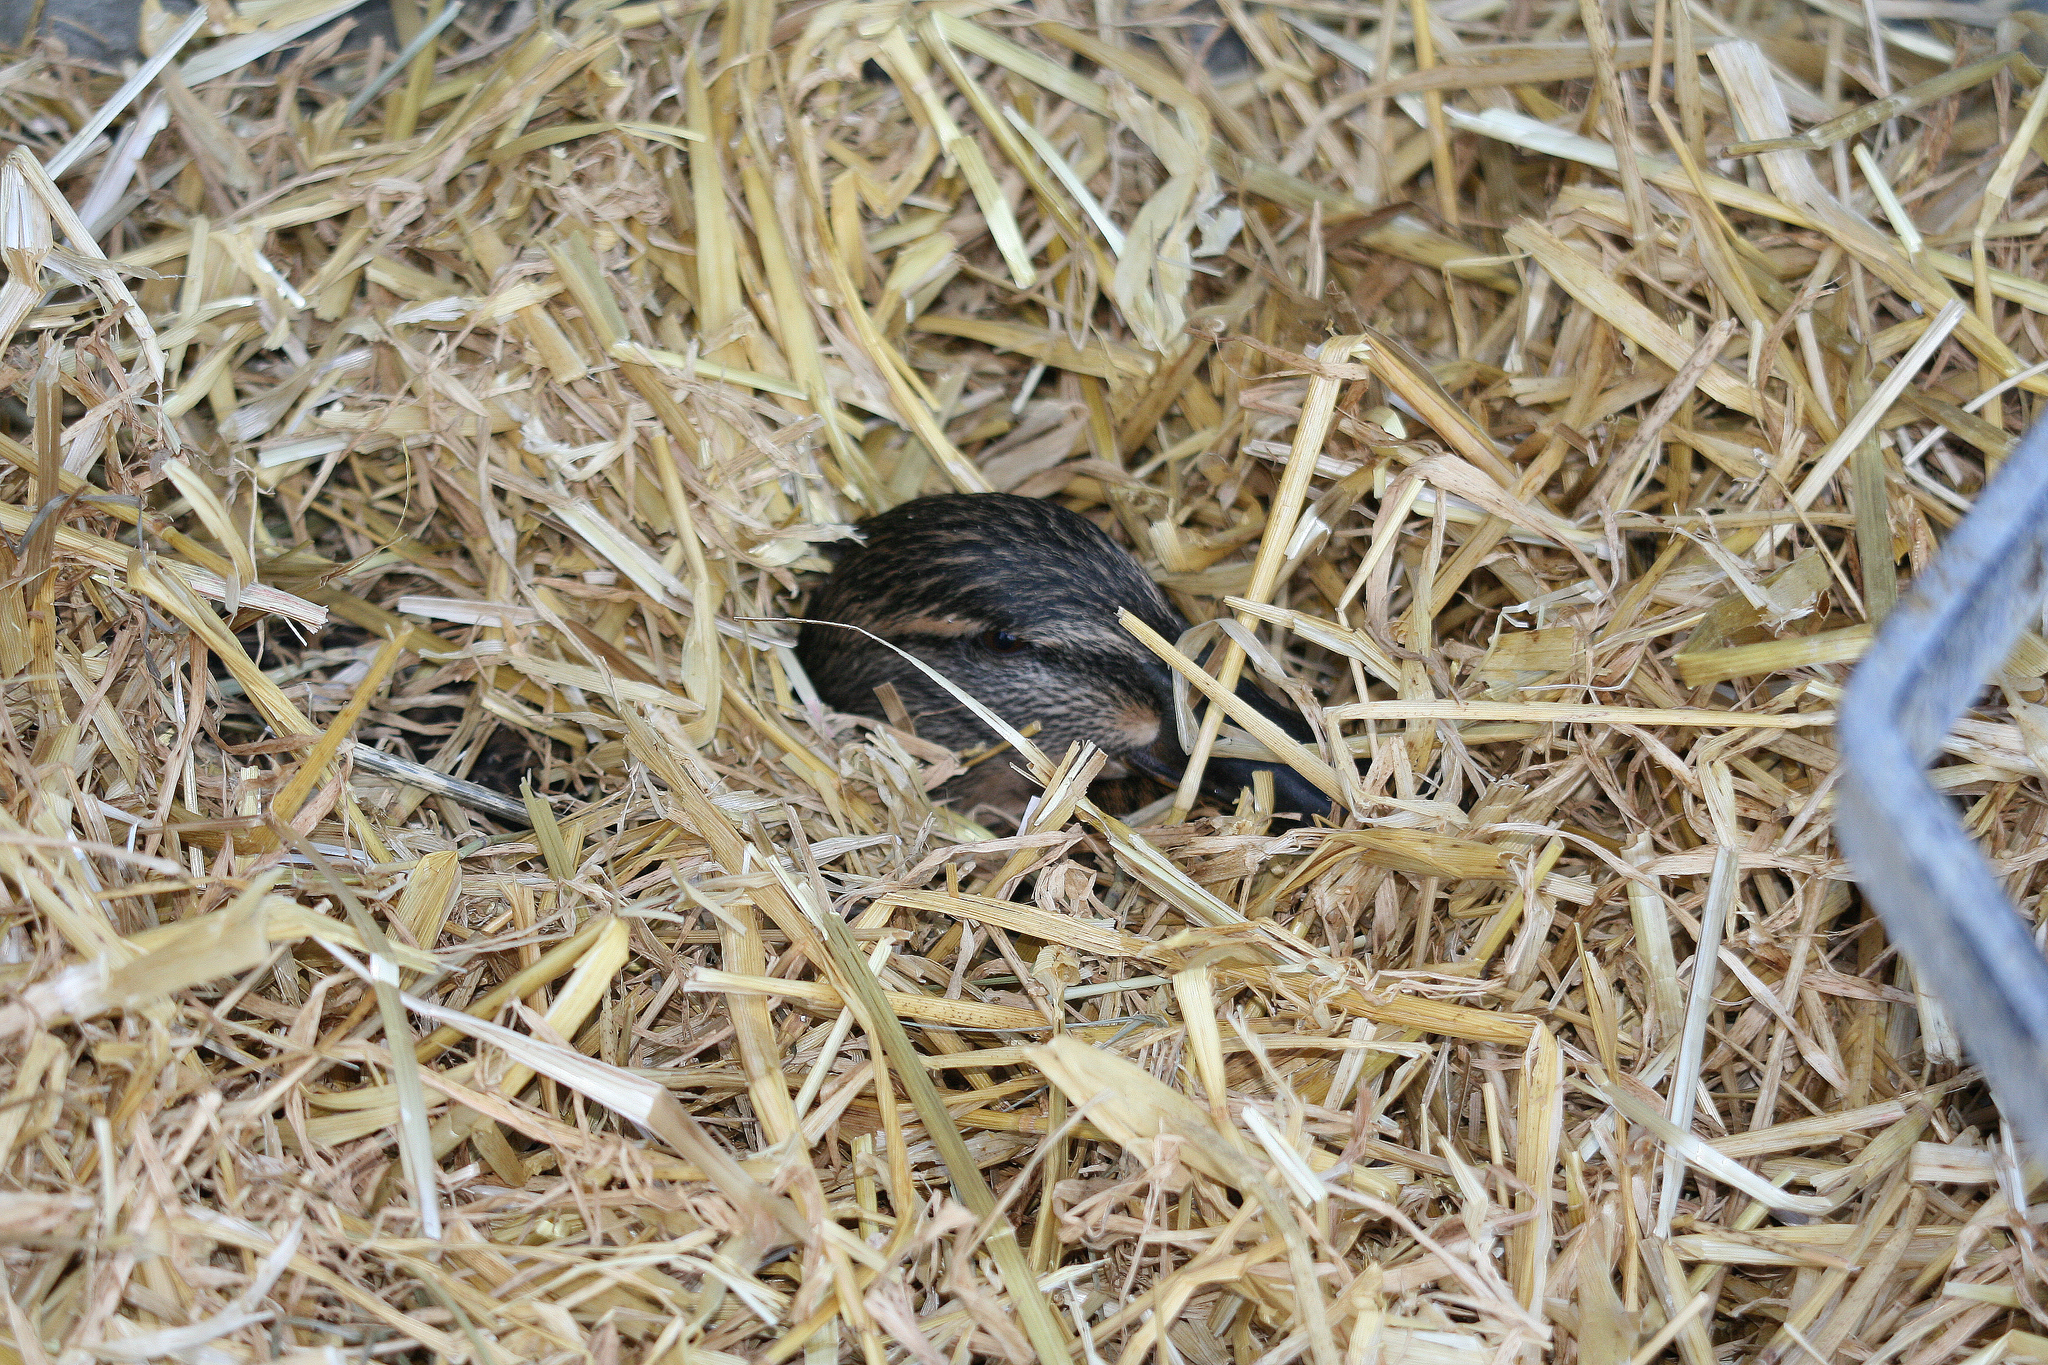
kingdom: Animalia
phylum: Chordata
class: Aves
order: Anseriformes
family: Anatidae
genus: Anas
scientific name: Anas platyrhynchos
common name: Mallard
